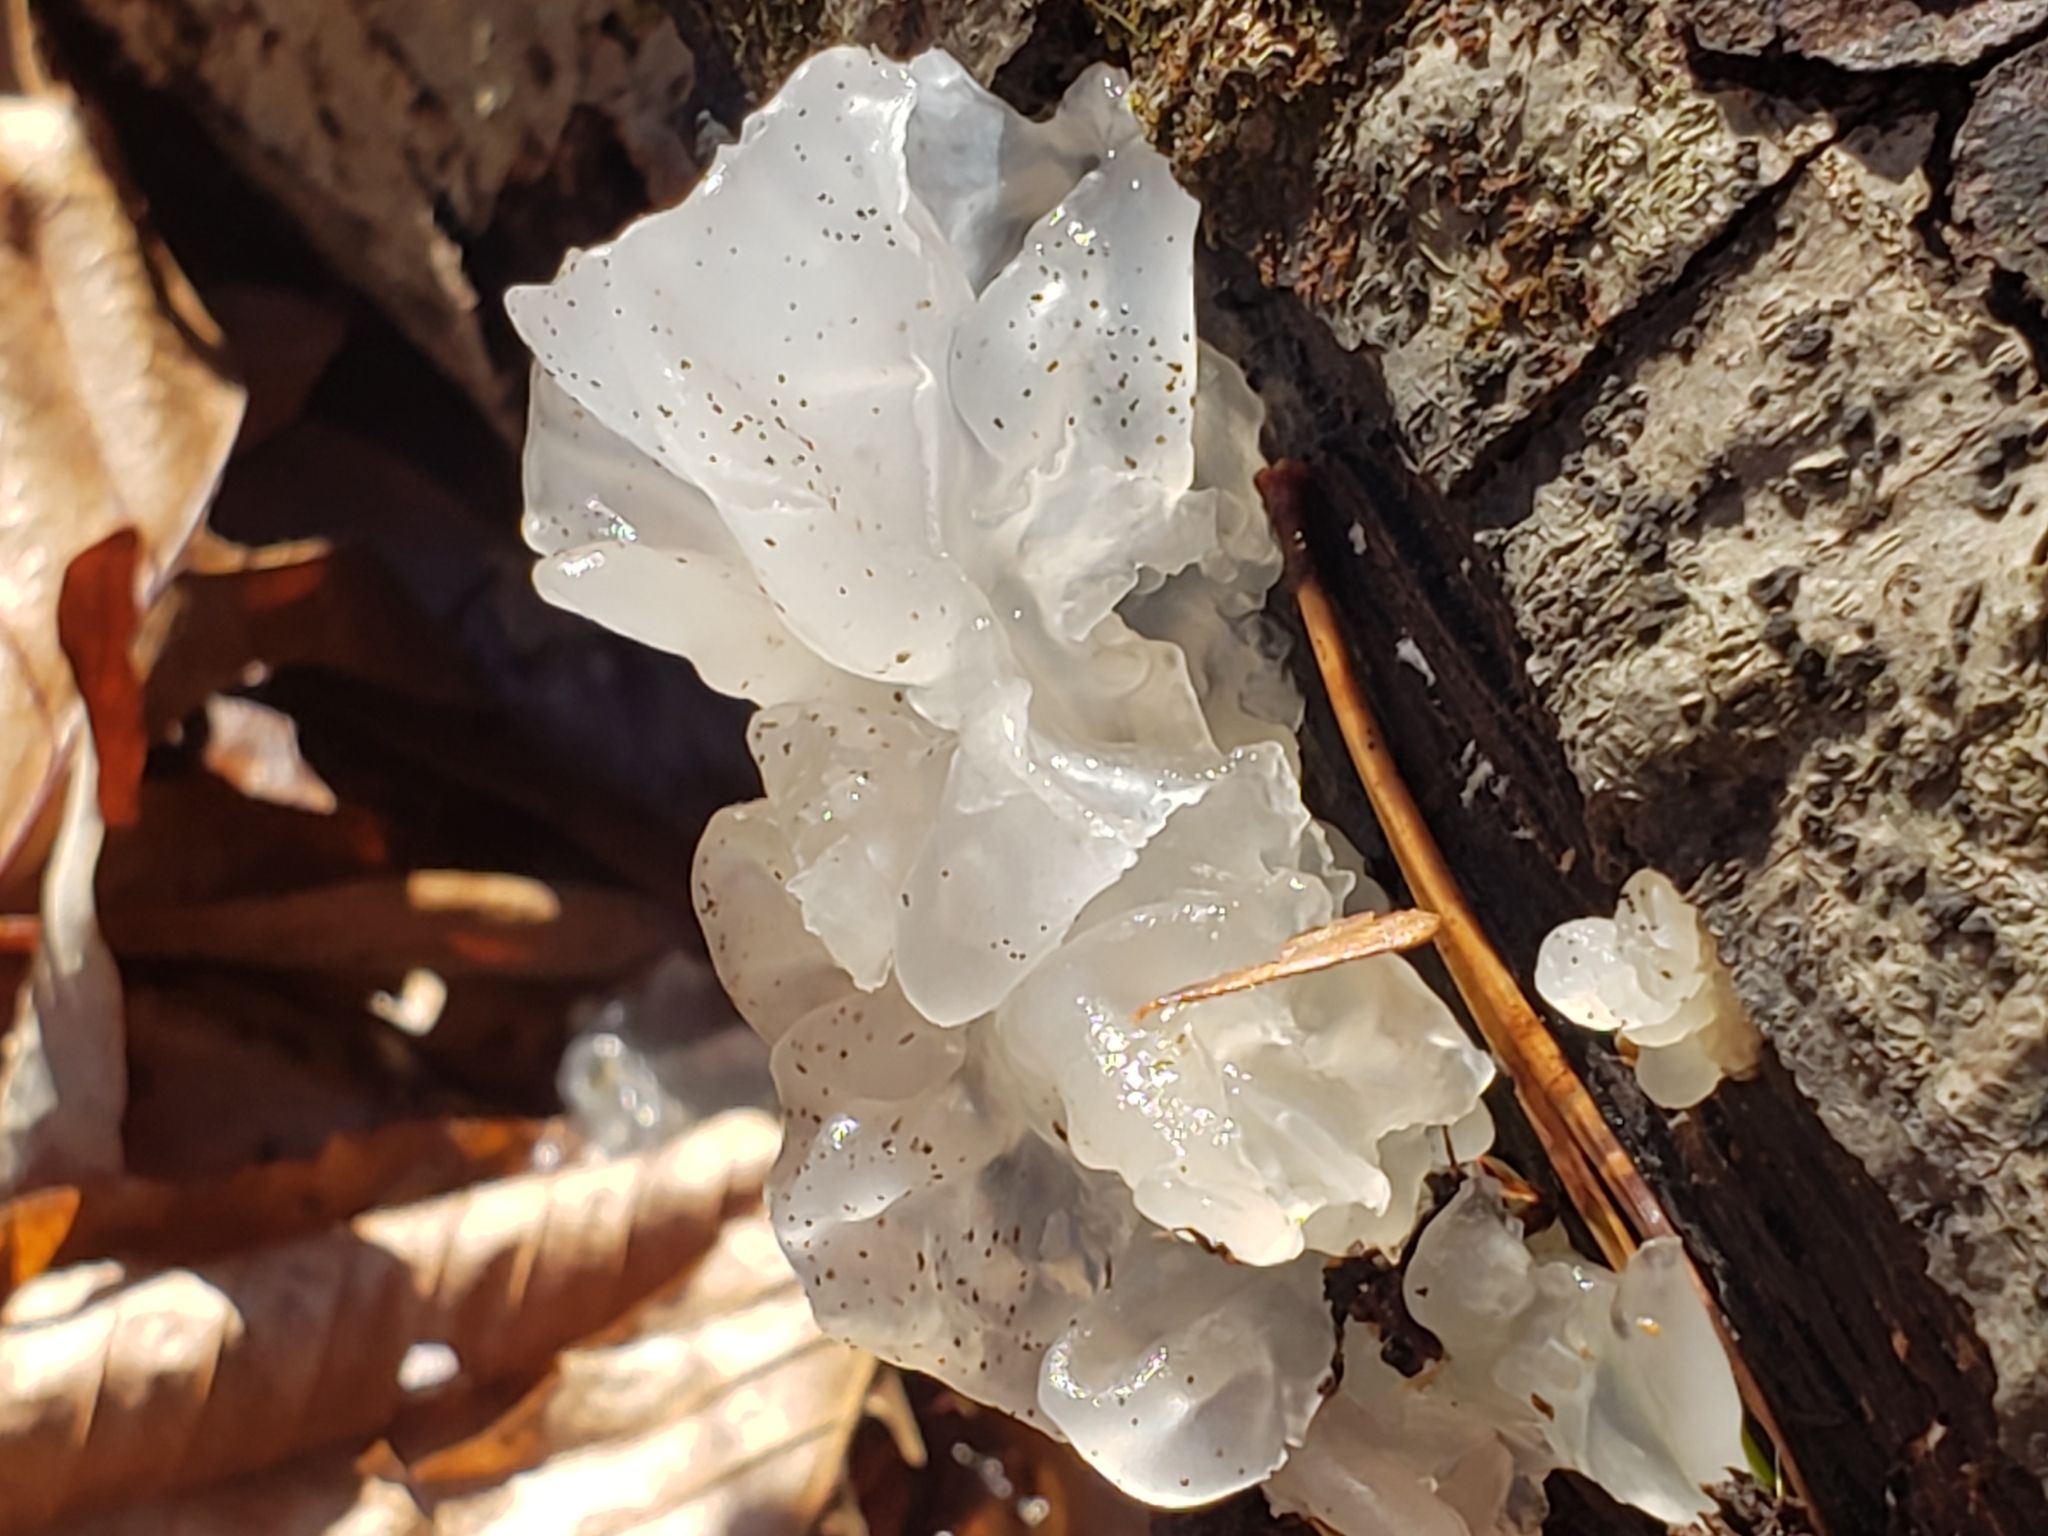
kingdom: Fungi
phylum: Basidiomycota
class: Tremellomycetes
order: Tremellales
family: Tremellaceae
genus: Tremella
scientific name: Tremella fuciformis
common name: Snow fungus
